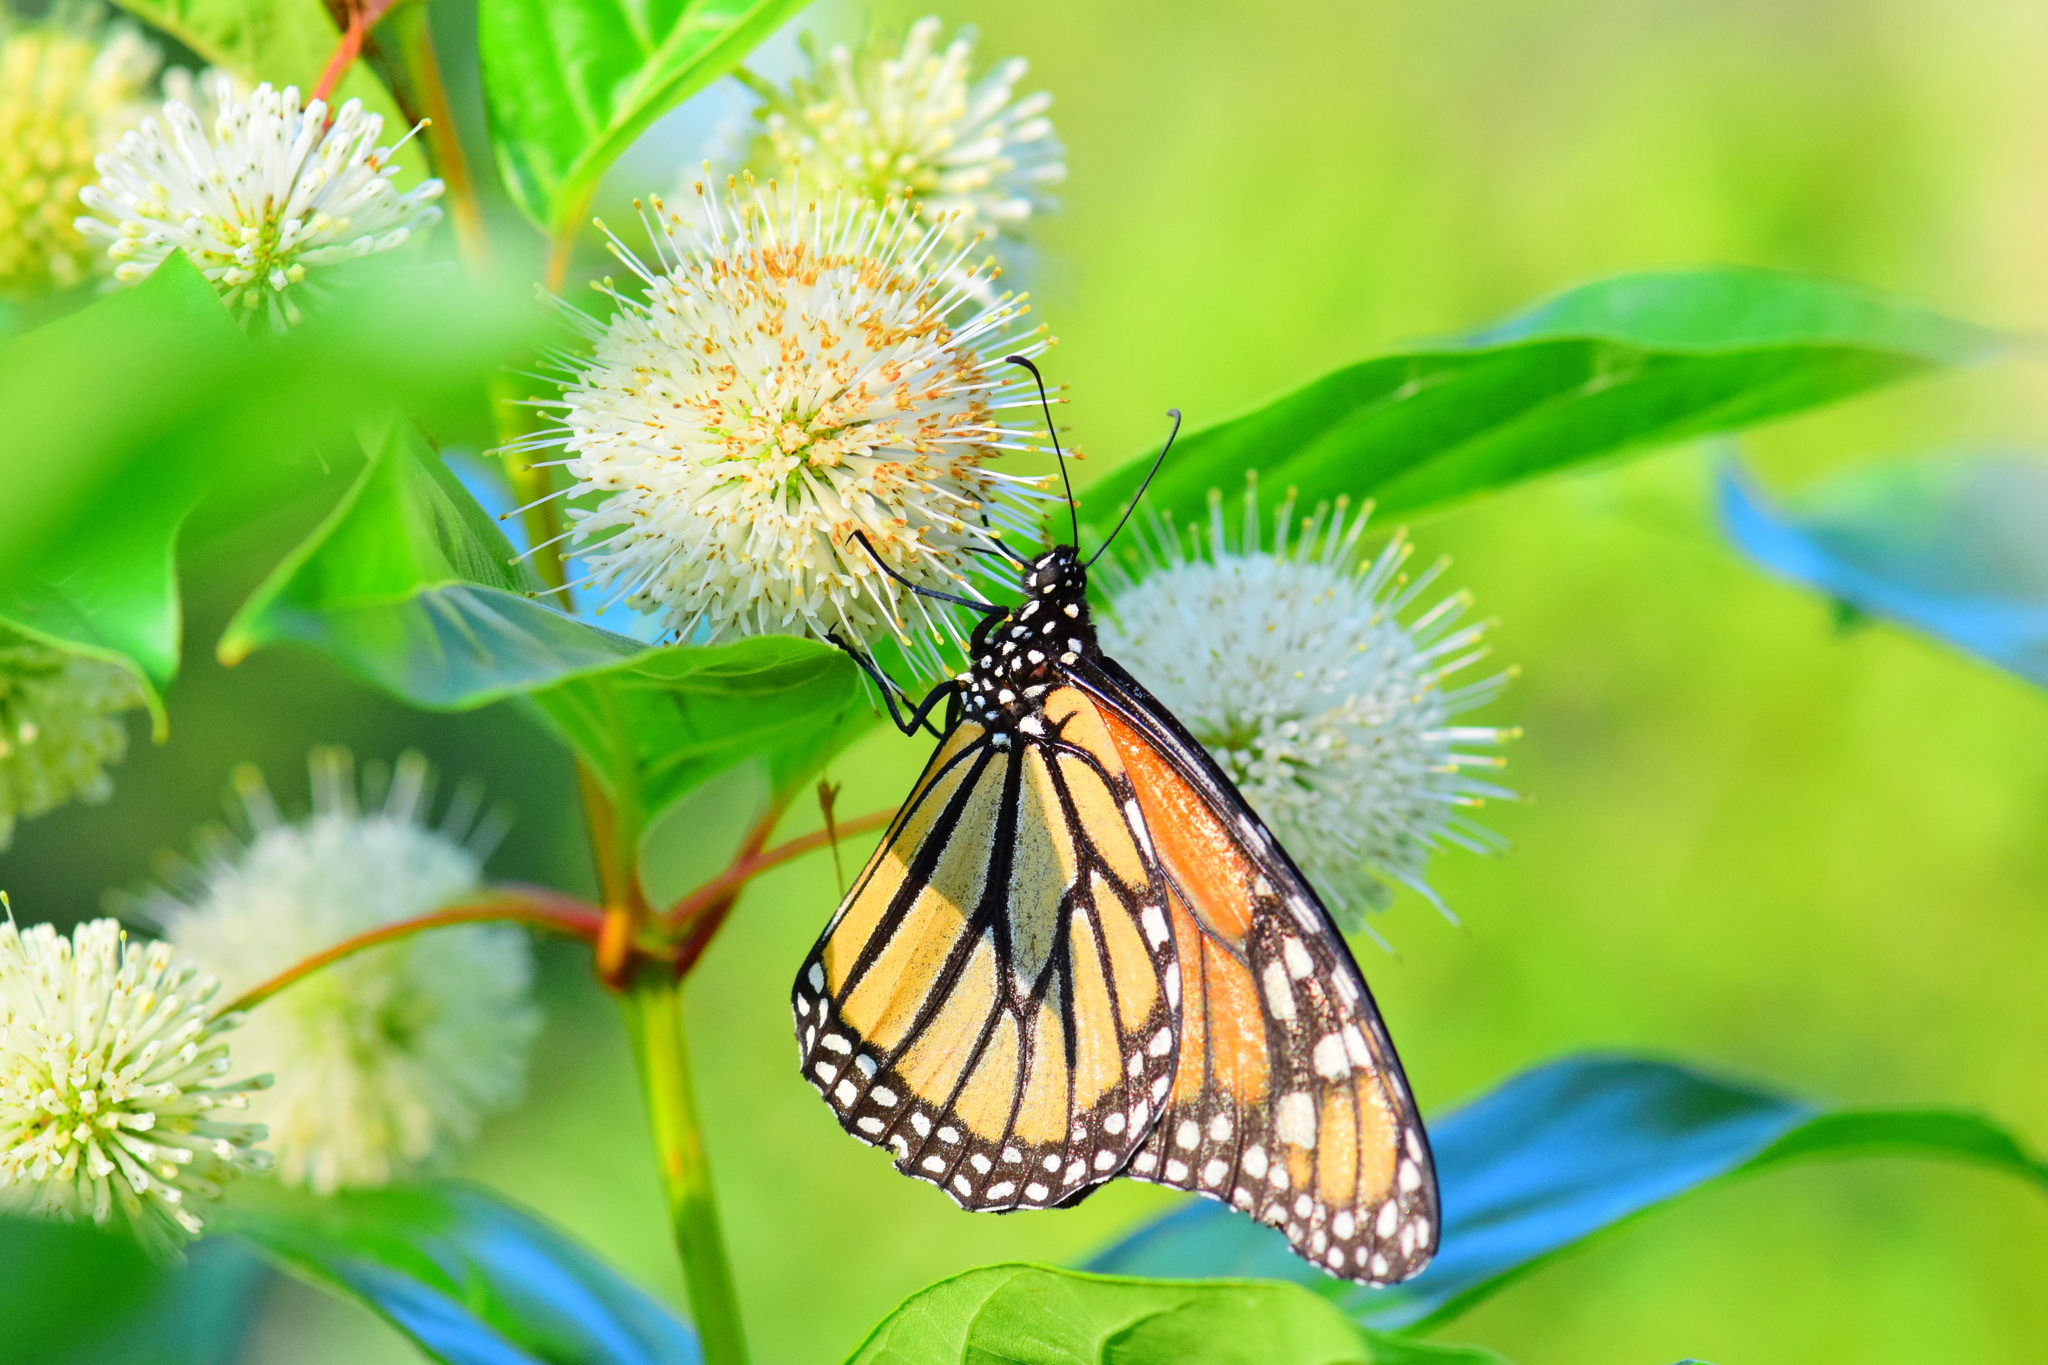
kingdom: Animalia
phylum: Arthropoda
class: Insecta
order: Lepidoptera
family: Nymphalidae
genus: Danaus
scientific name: Danaus plexippus
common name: Monarch
